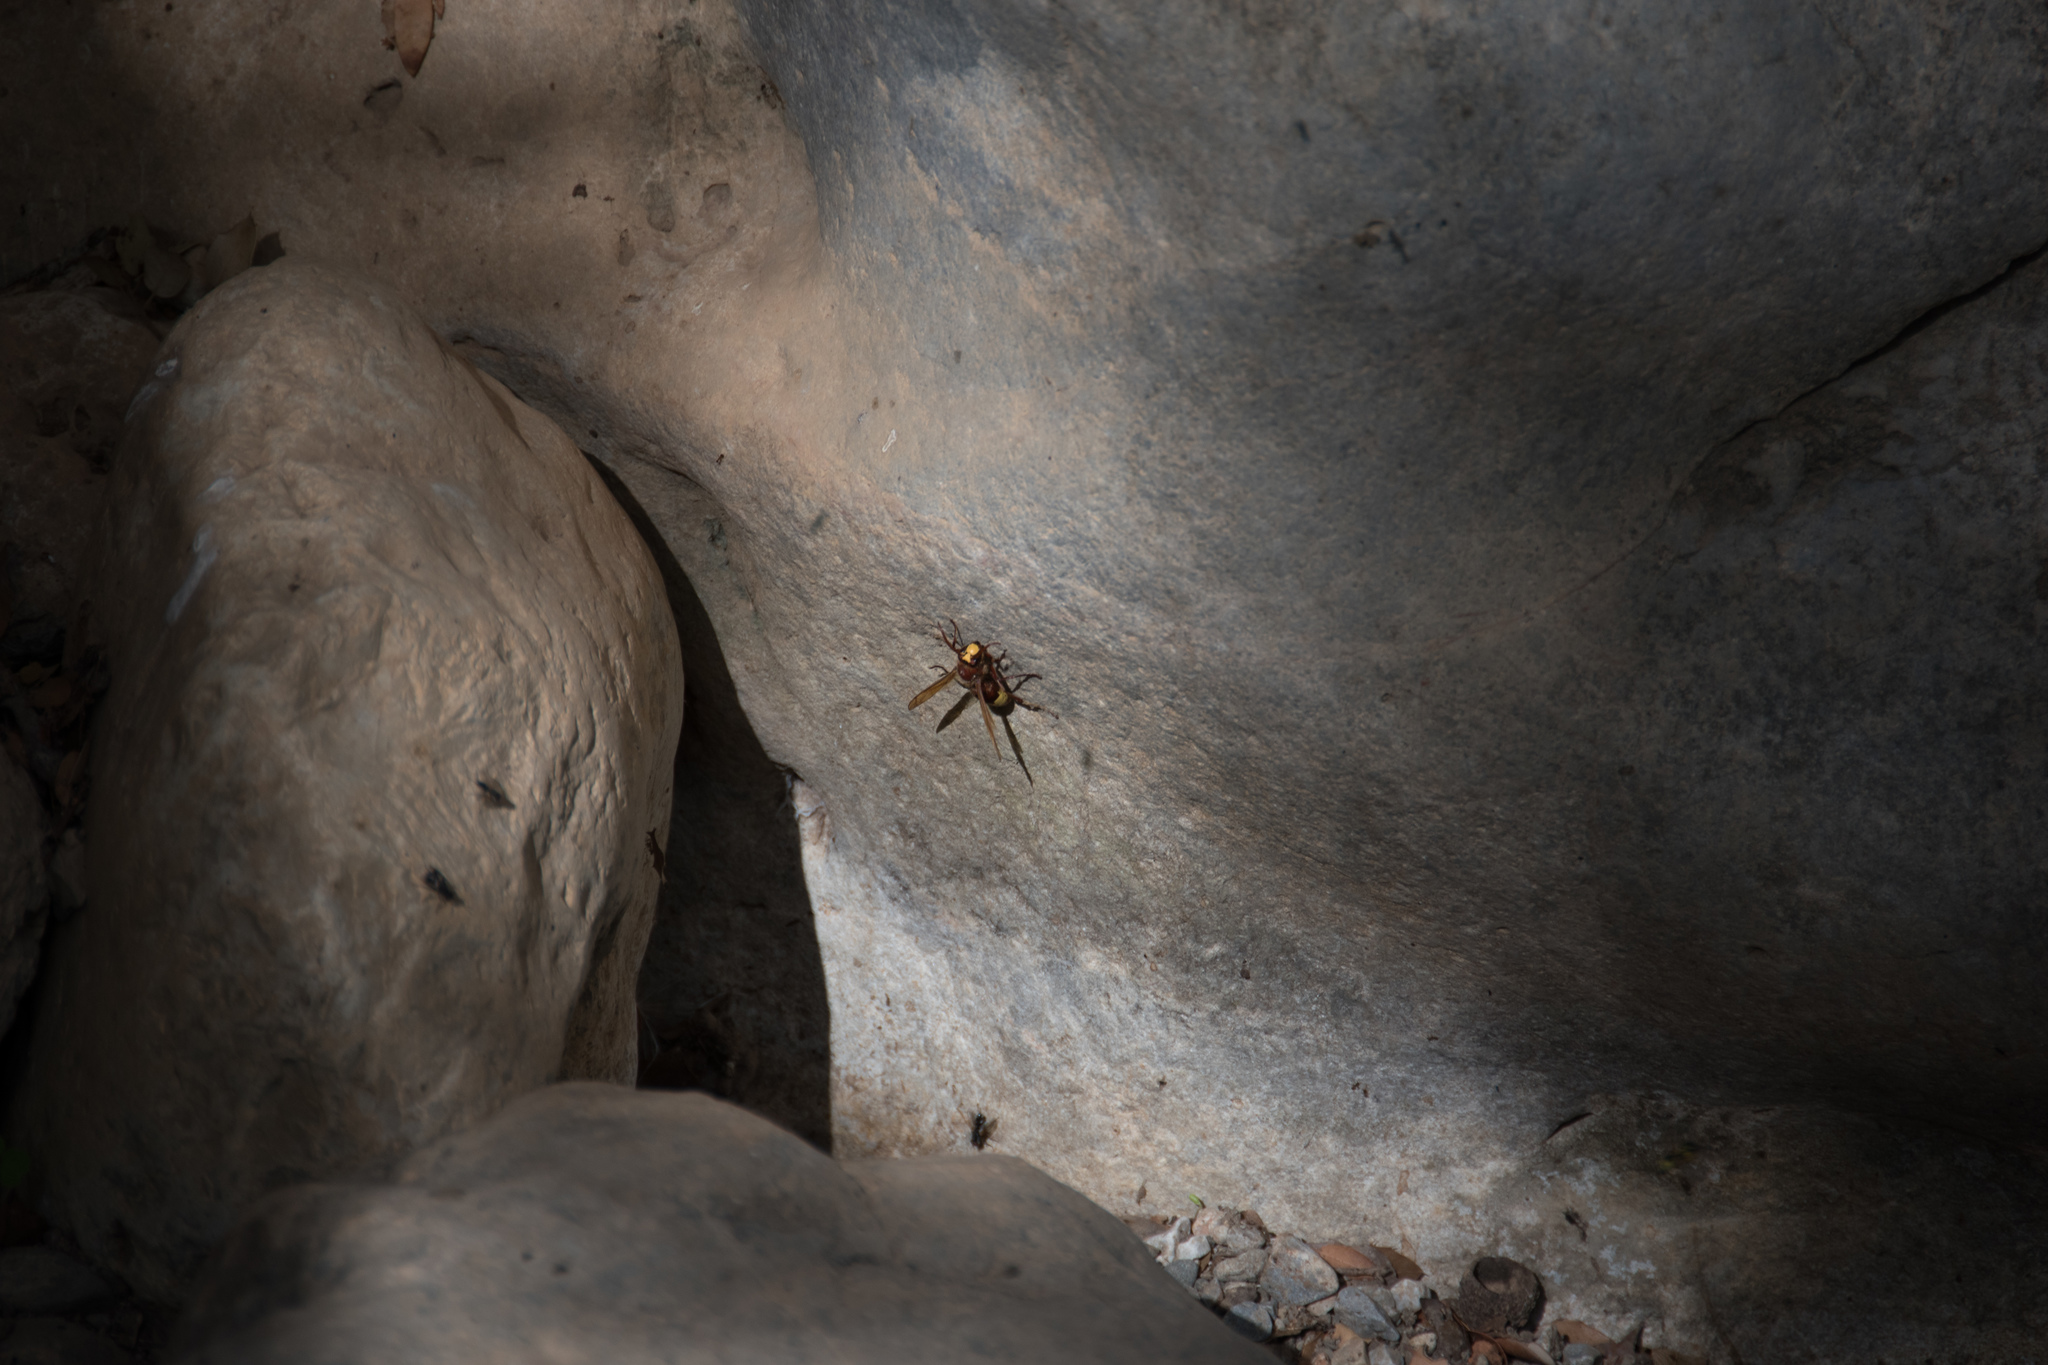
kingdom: Animalia
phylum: Arthropoda
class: Insecta
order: Hymenoptera
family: Vespidae
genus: Vespa
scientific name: Vespa orientalis
